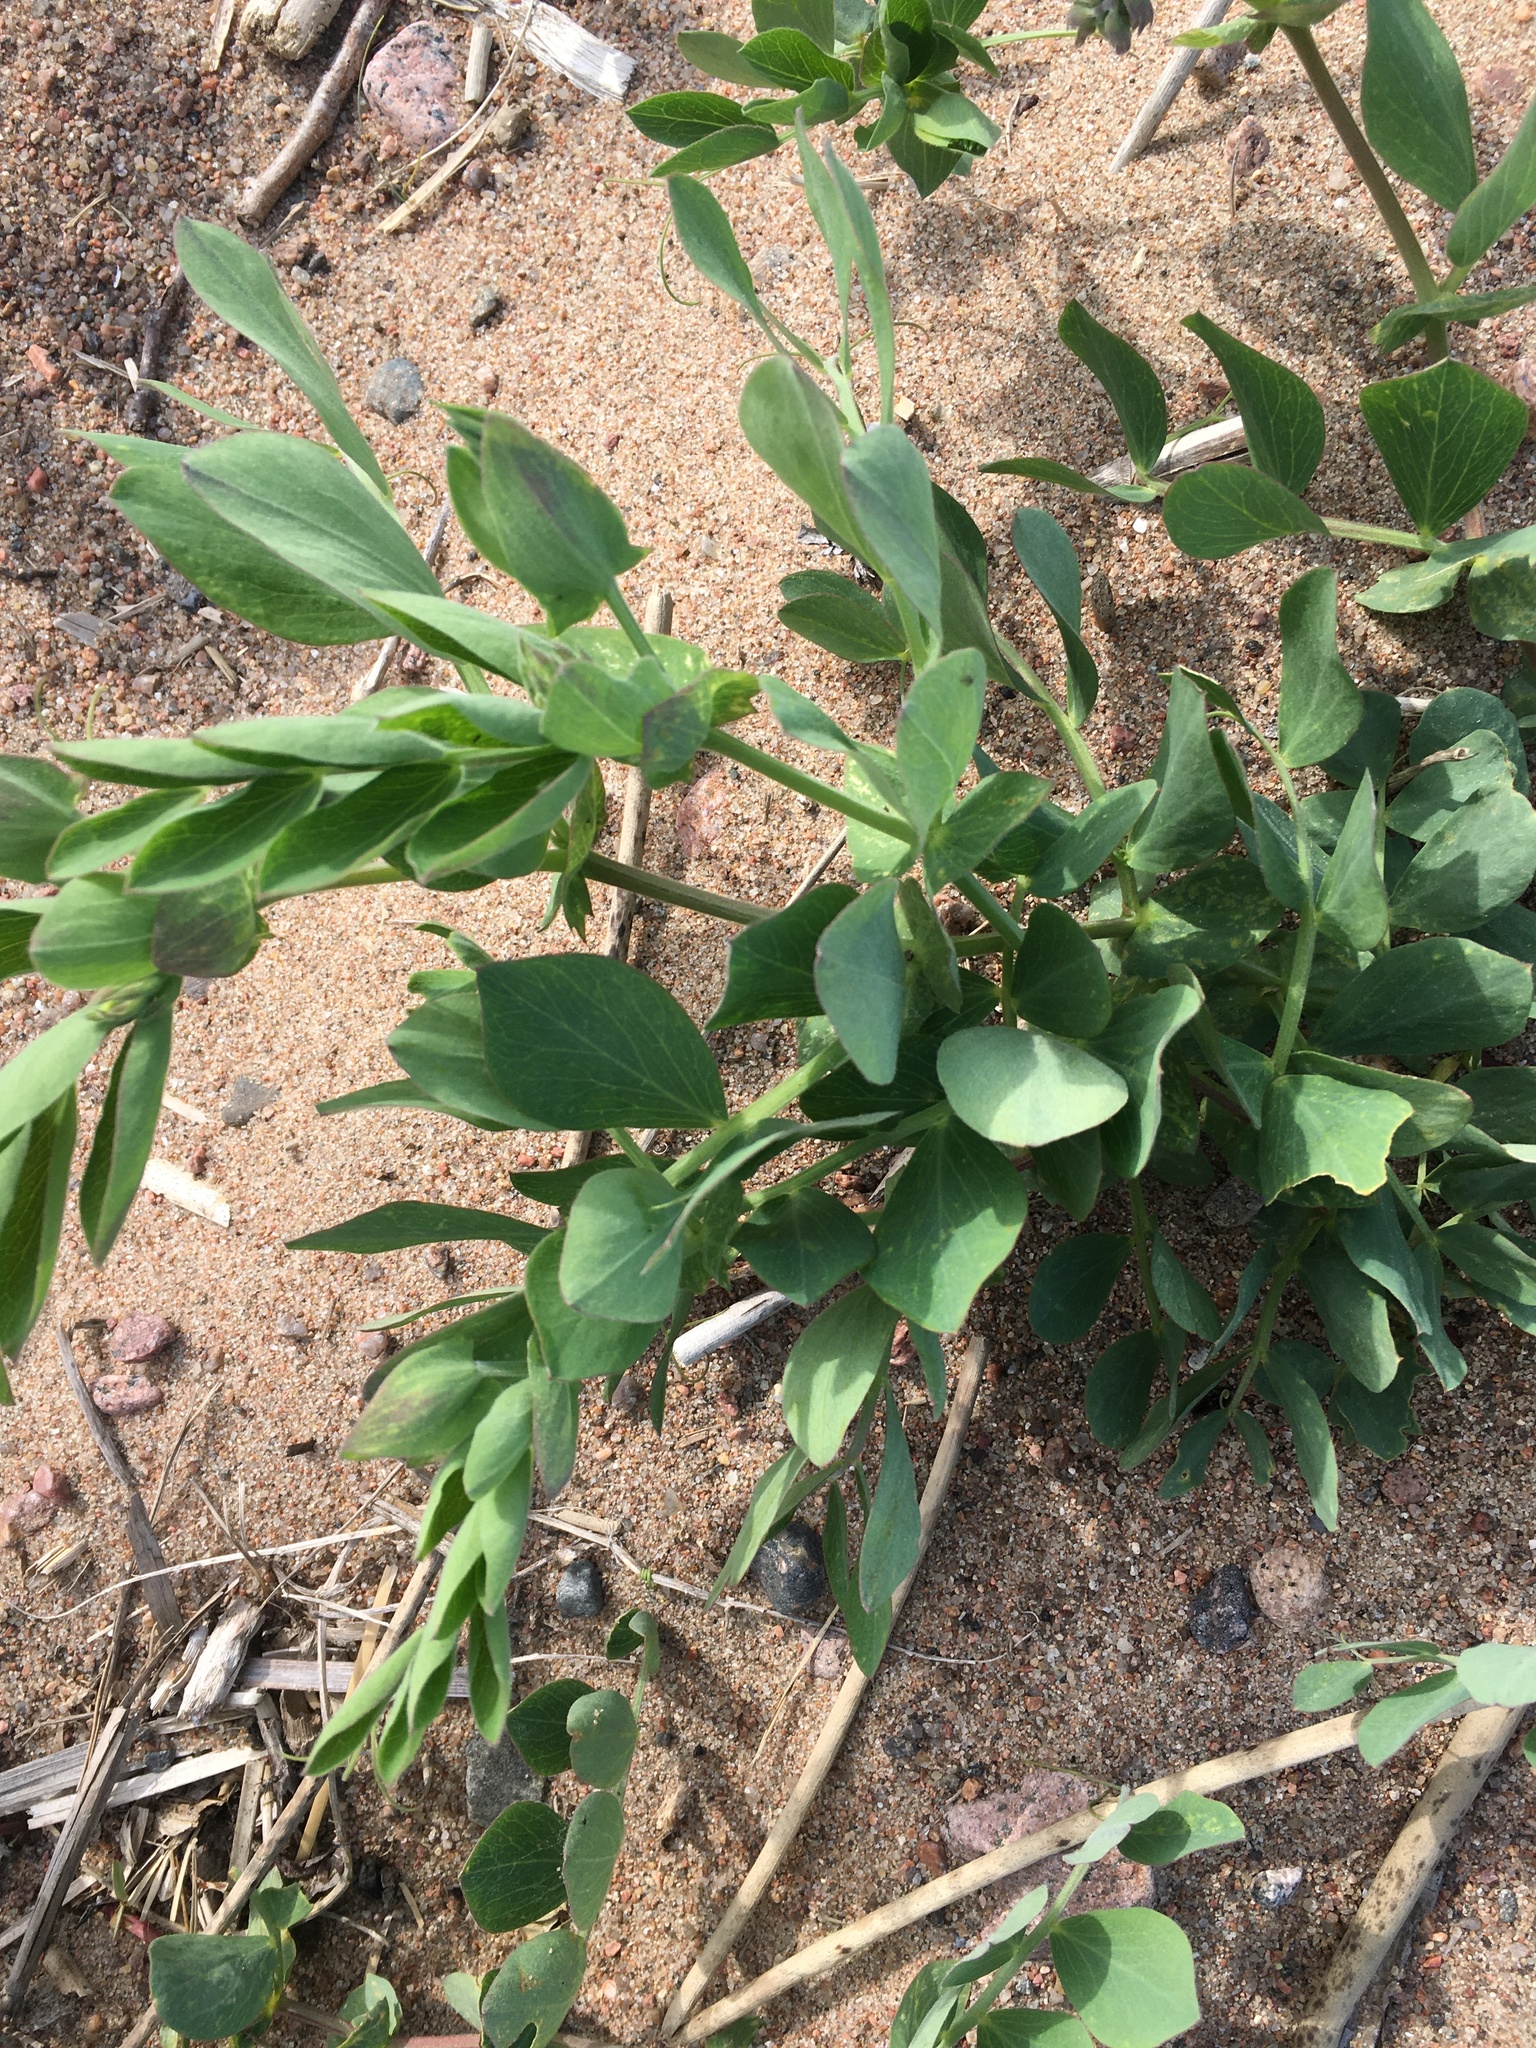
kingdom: Plantae
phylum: Tracheophyta
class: Magnoliopsida
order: Fabales
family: Fabaceae
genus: Lathyrus
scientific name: Lathyrus japonicus
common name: Sea pea
